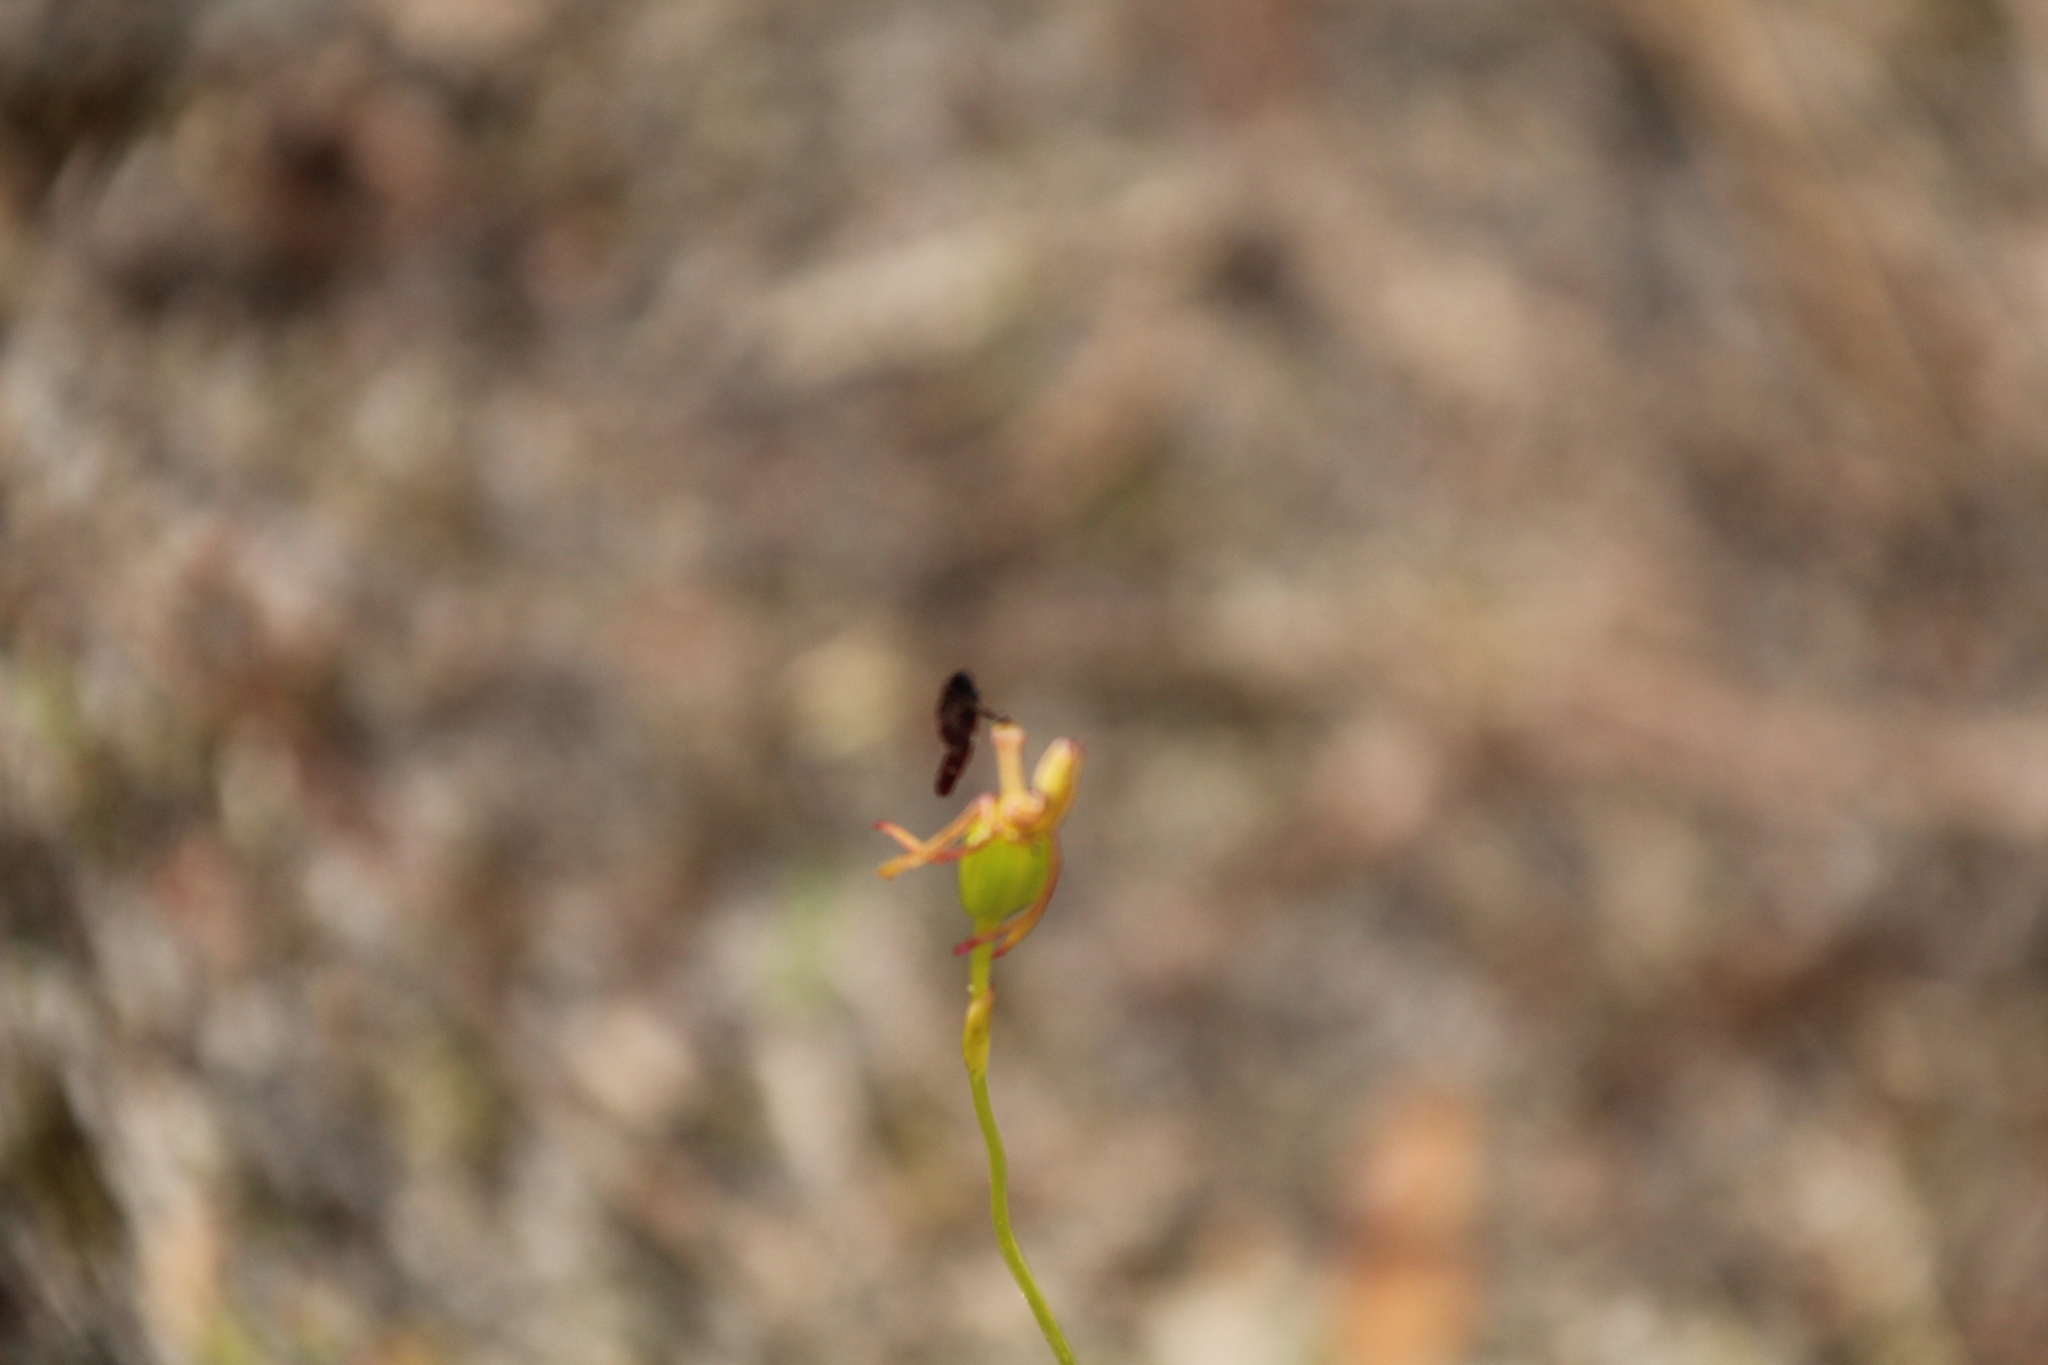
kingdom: Plantae
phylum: Tracheophyta
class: Liliopsida
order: Asparagales
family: Orchidaceae
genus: Drakaea
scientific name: Drakaea glyptodon
